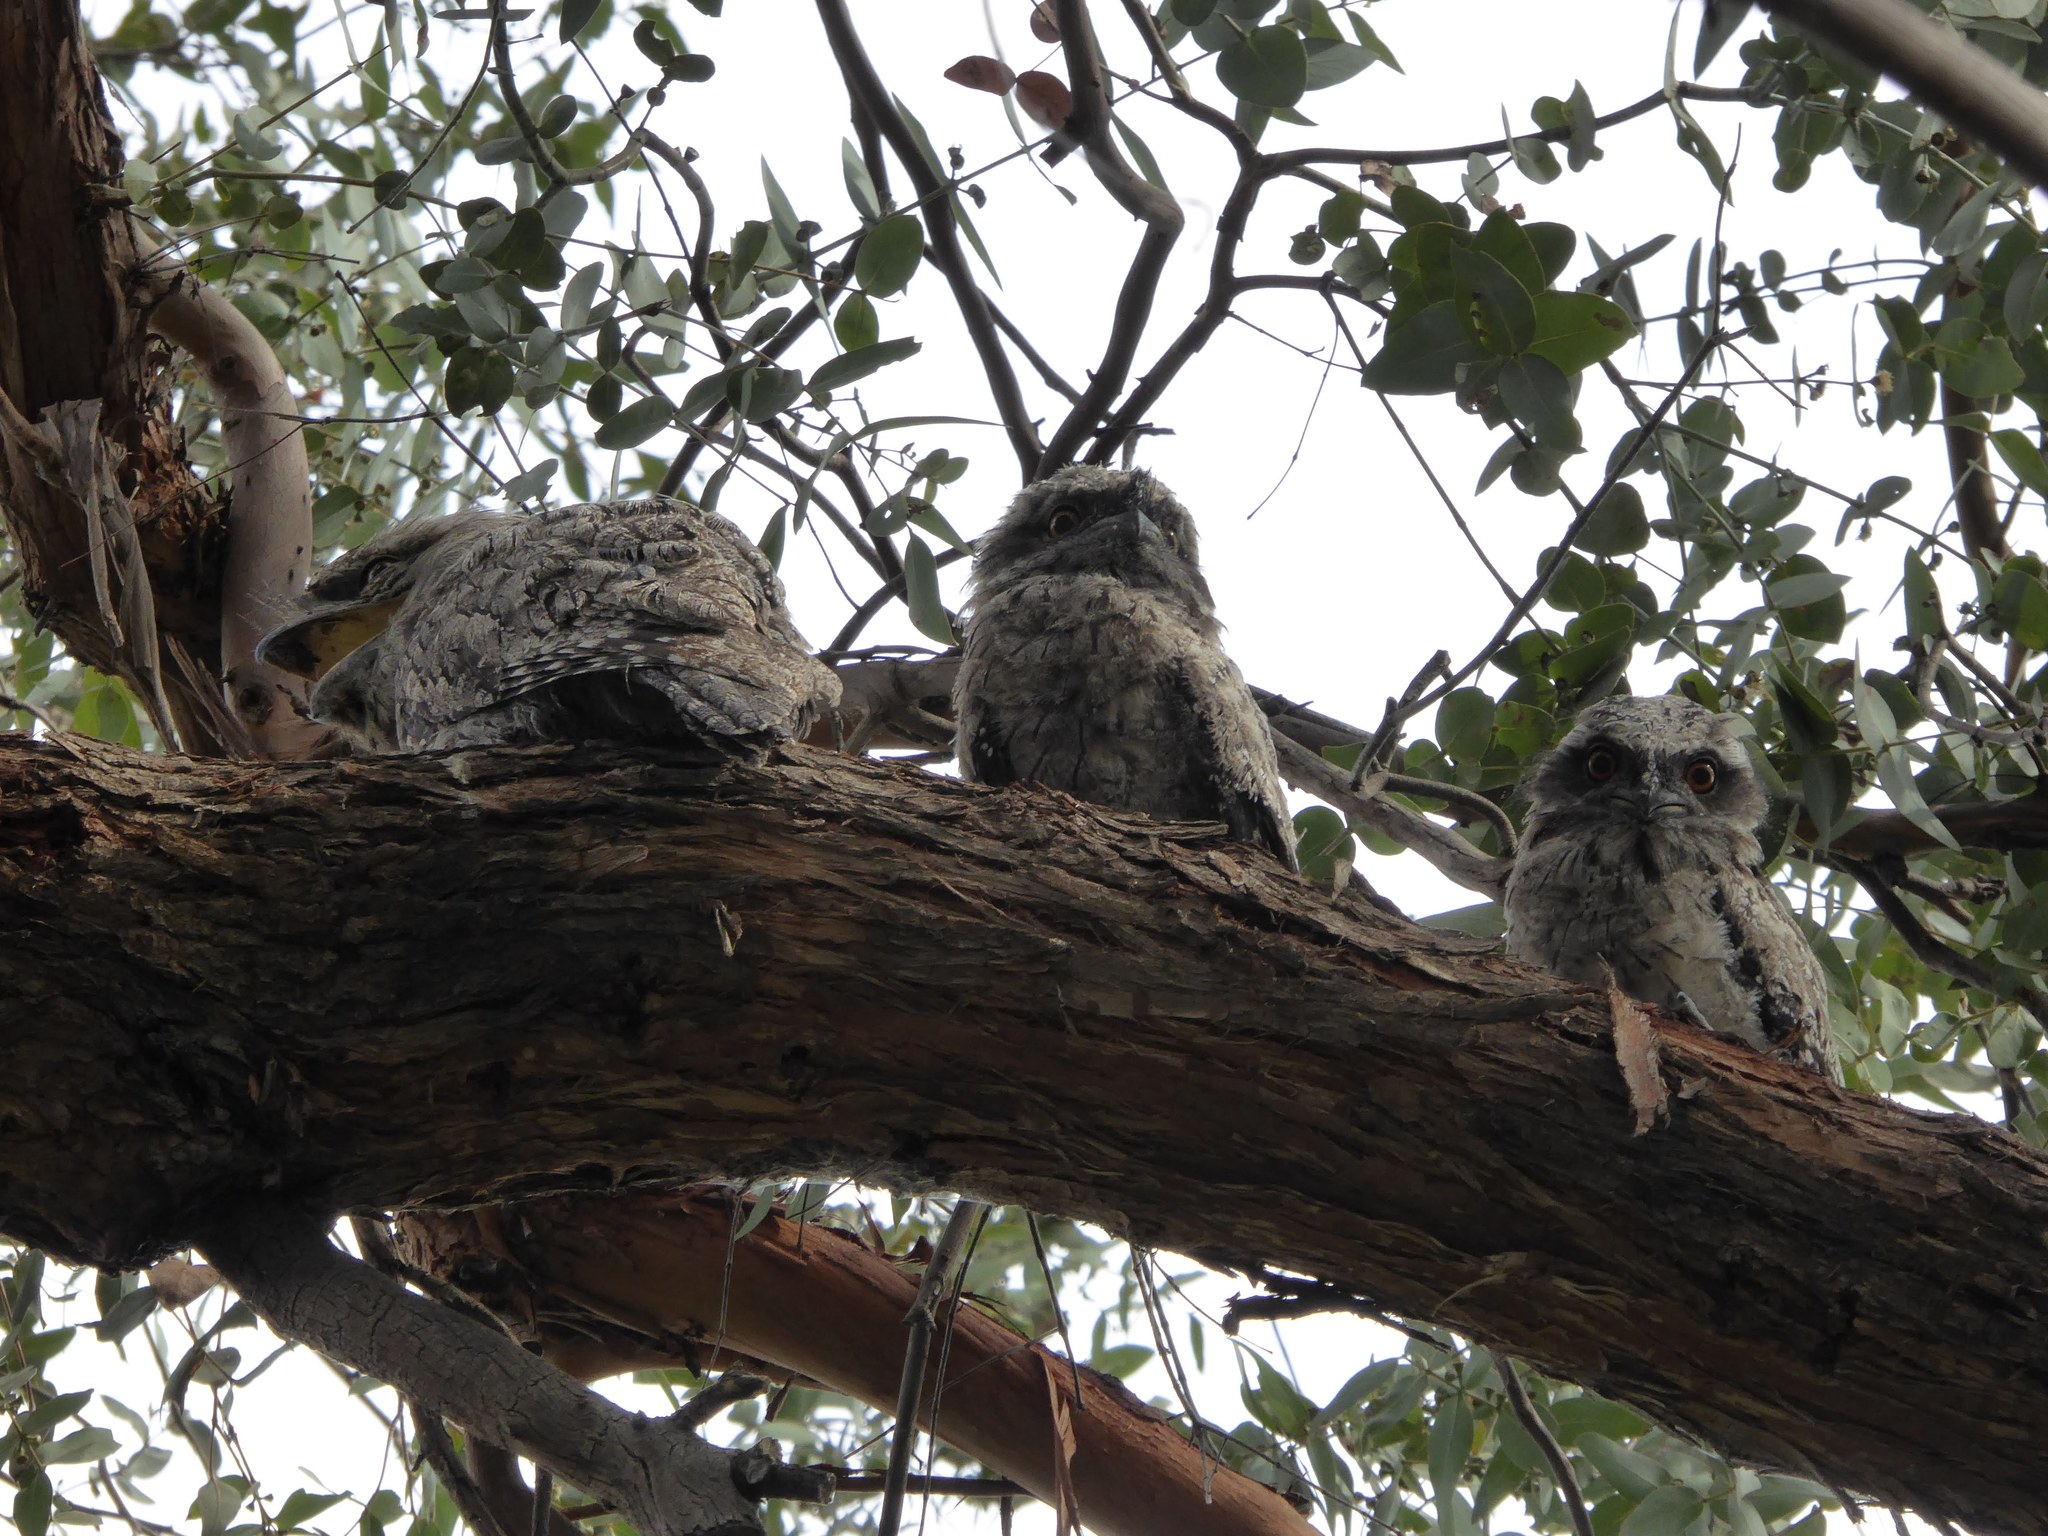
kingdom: Animalia
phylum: Chordata
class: Aves
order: Caprimulgiformes
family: Podargidae
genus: Podargus
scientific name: Podargus strigoides
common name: Tawny frogmouth
